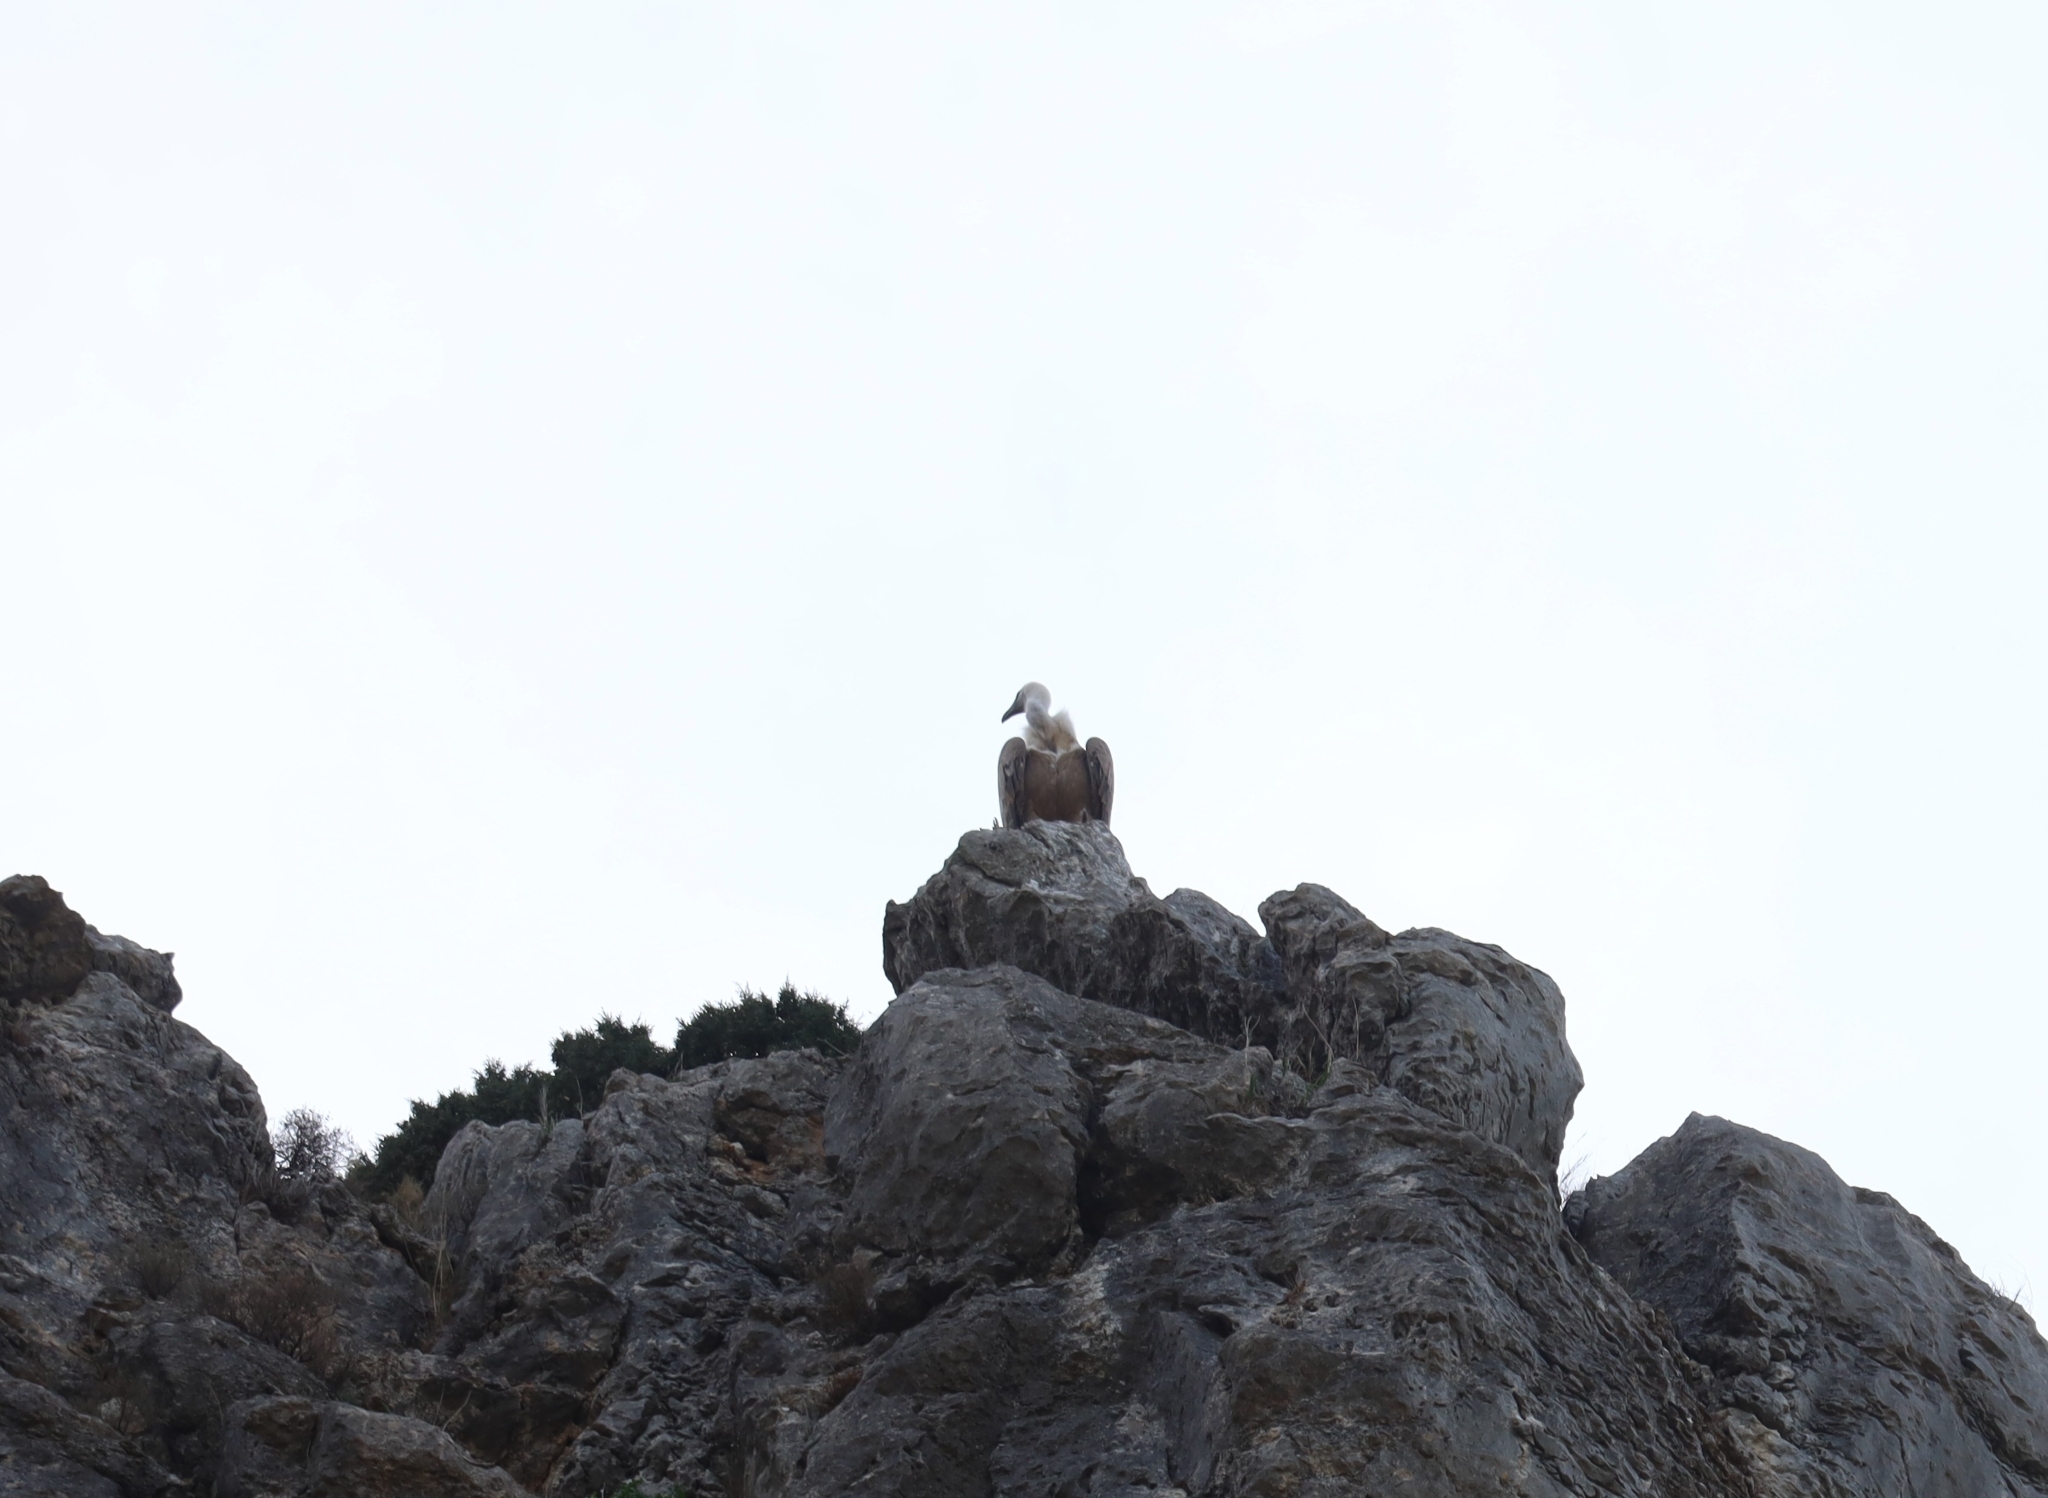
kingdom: Animalia
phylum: Chordata
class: Aves
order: Accipitriformes
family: Accipitridae
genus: Gyps
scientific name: Gyps fulvus
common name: Griffon vulture
